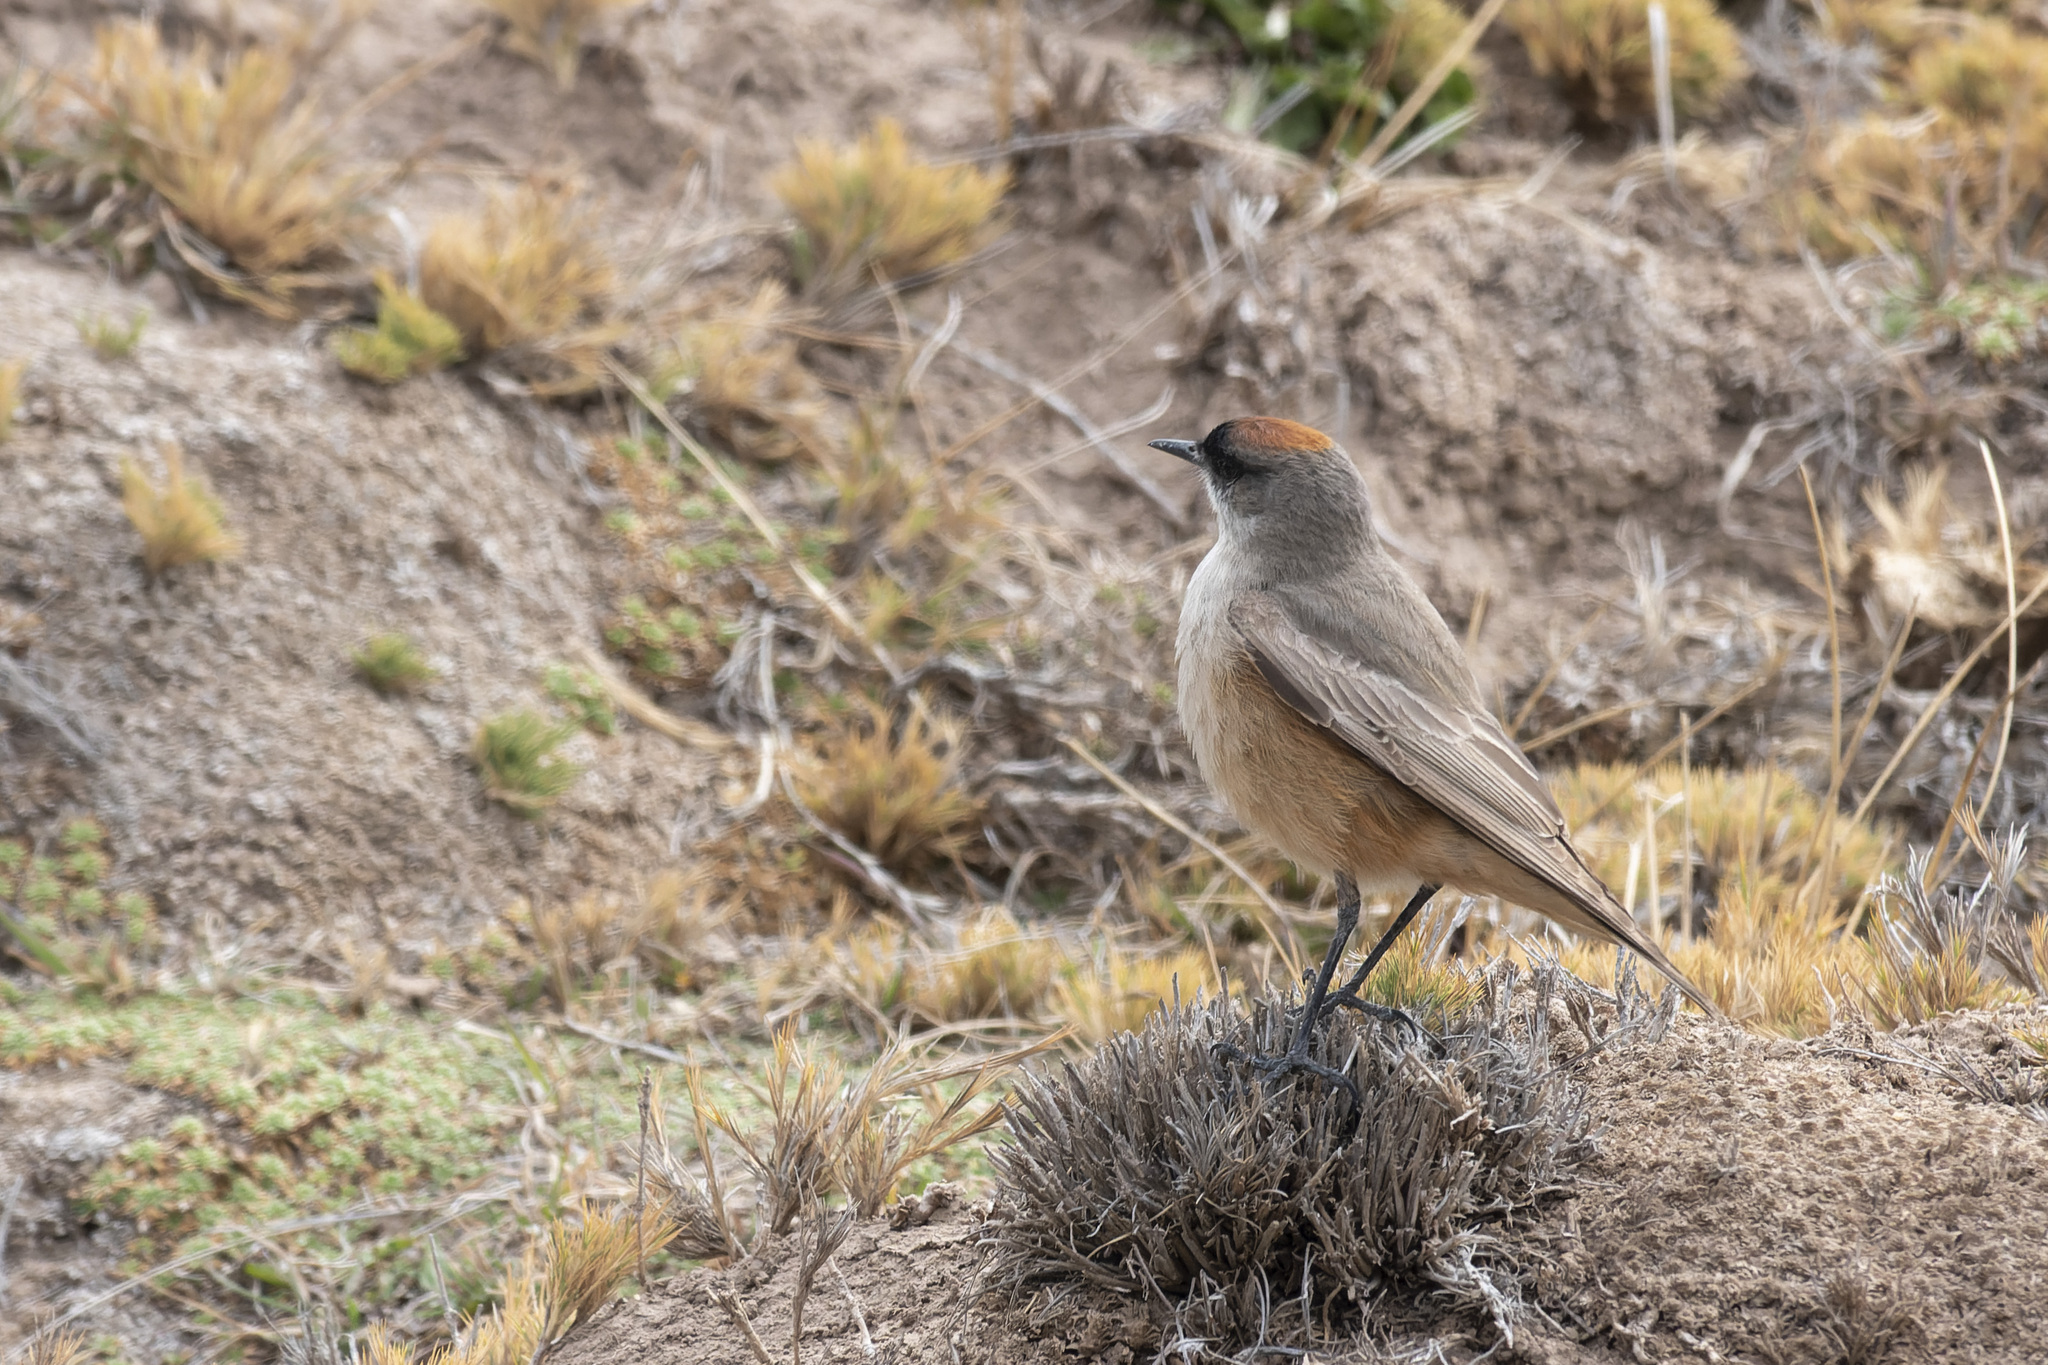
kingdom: Animalia
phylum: Chordata
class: Aves
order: Passeriformes
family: Tyrannidae
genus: Muscisaxicola
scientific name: Muscisaxicola capistratus
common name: Cinnamon-bellied ground tyrant
